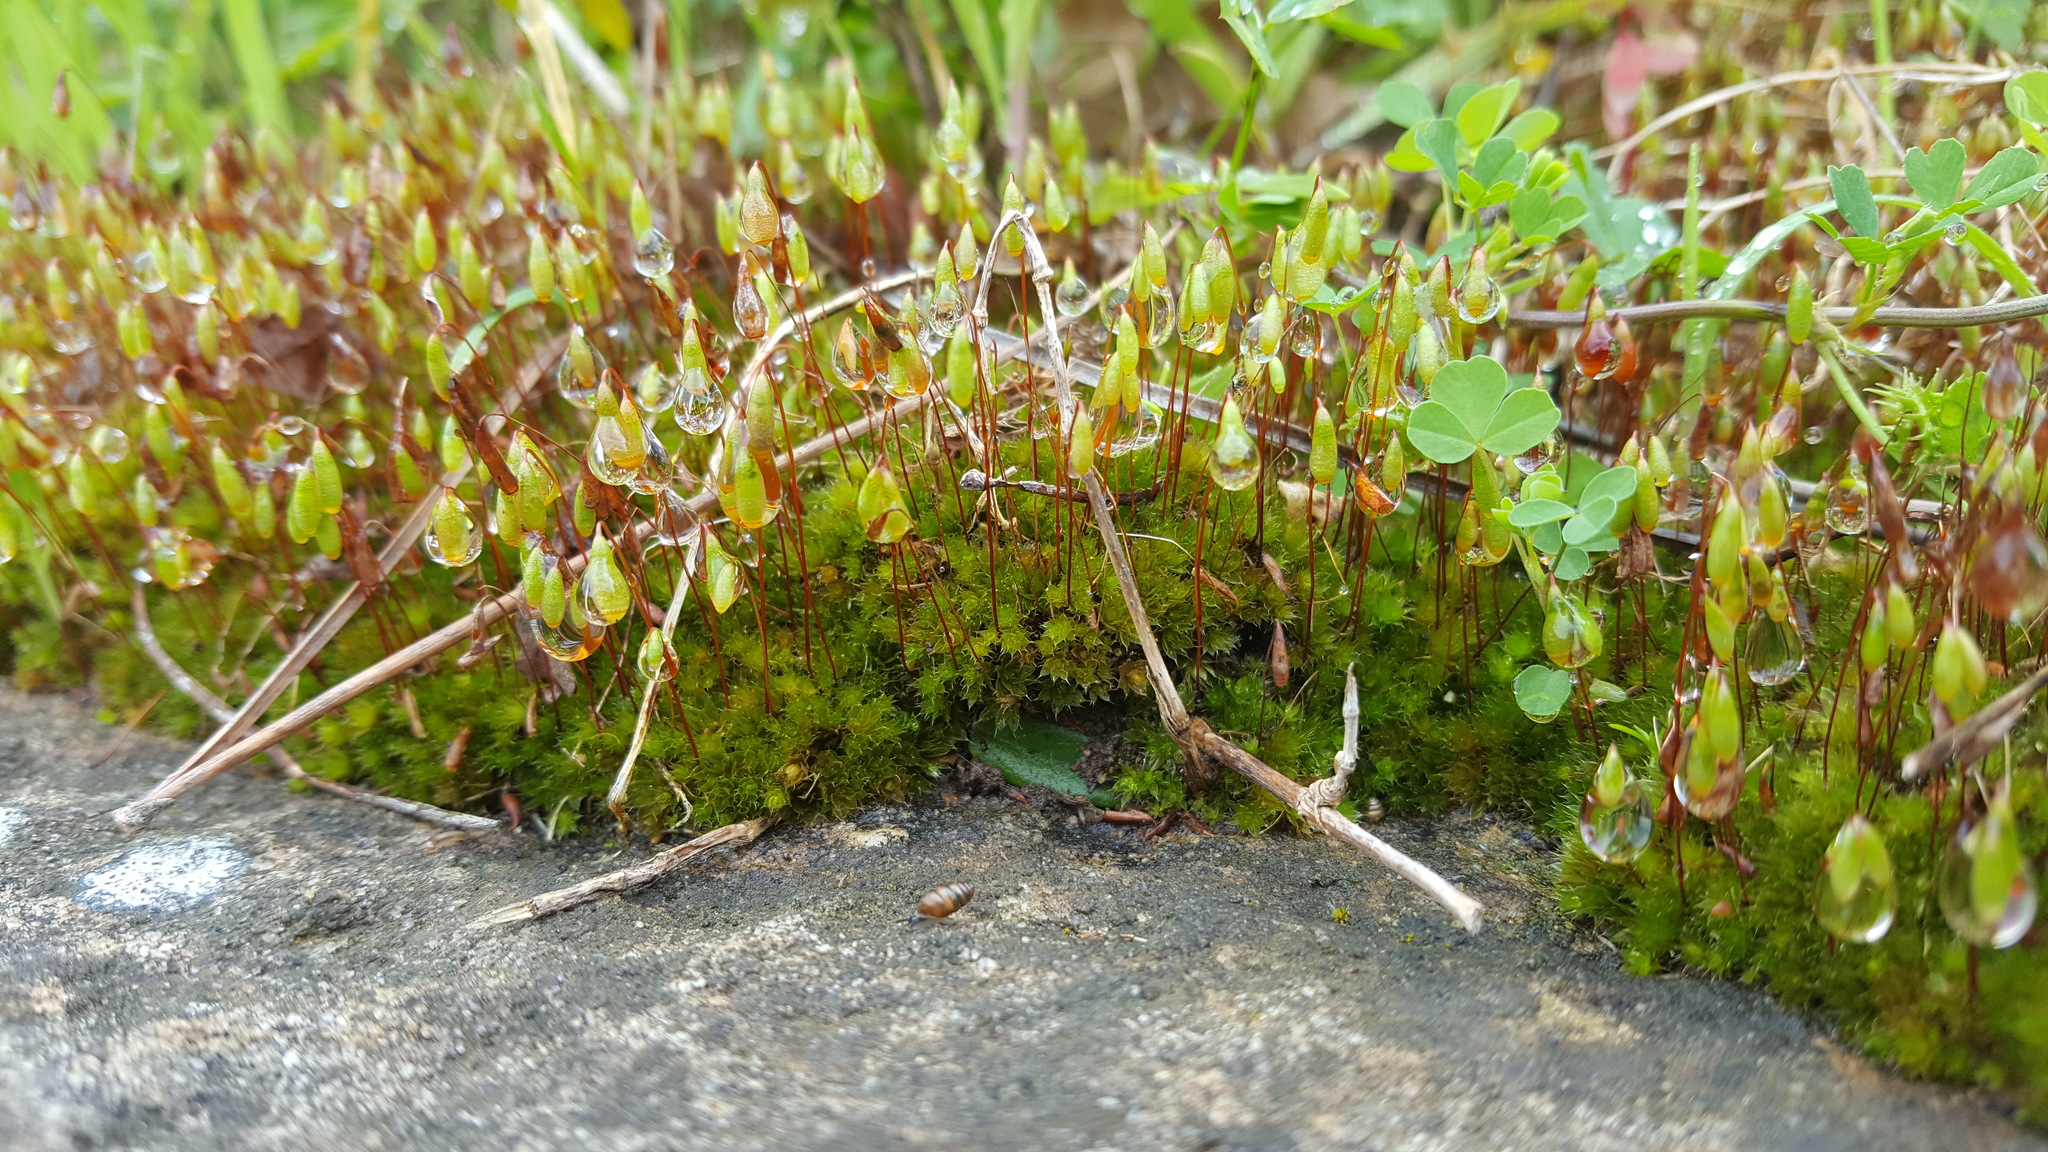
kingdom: Plantae
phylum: Bryophyta
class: Bryopsida
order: Bryales
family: Bryaceae
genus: Rosulabryum
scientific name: Rosulabryum torquescens
